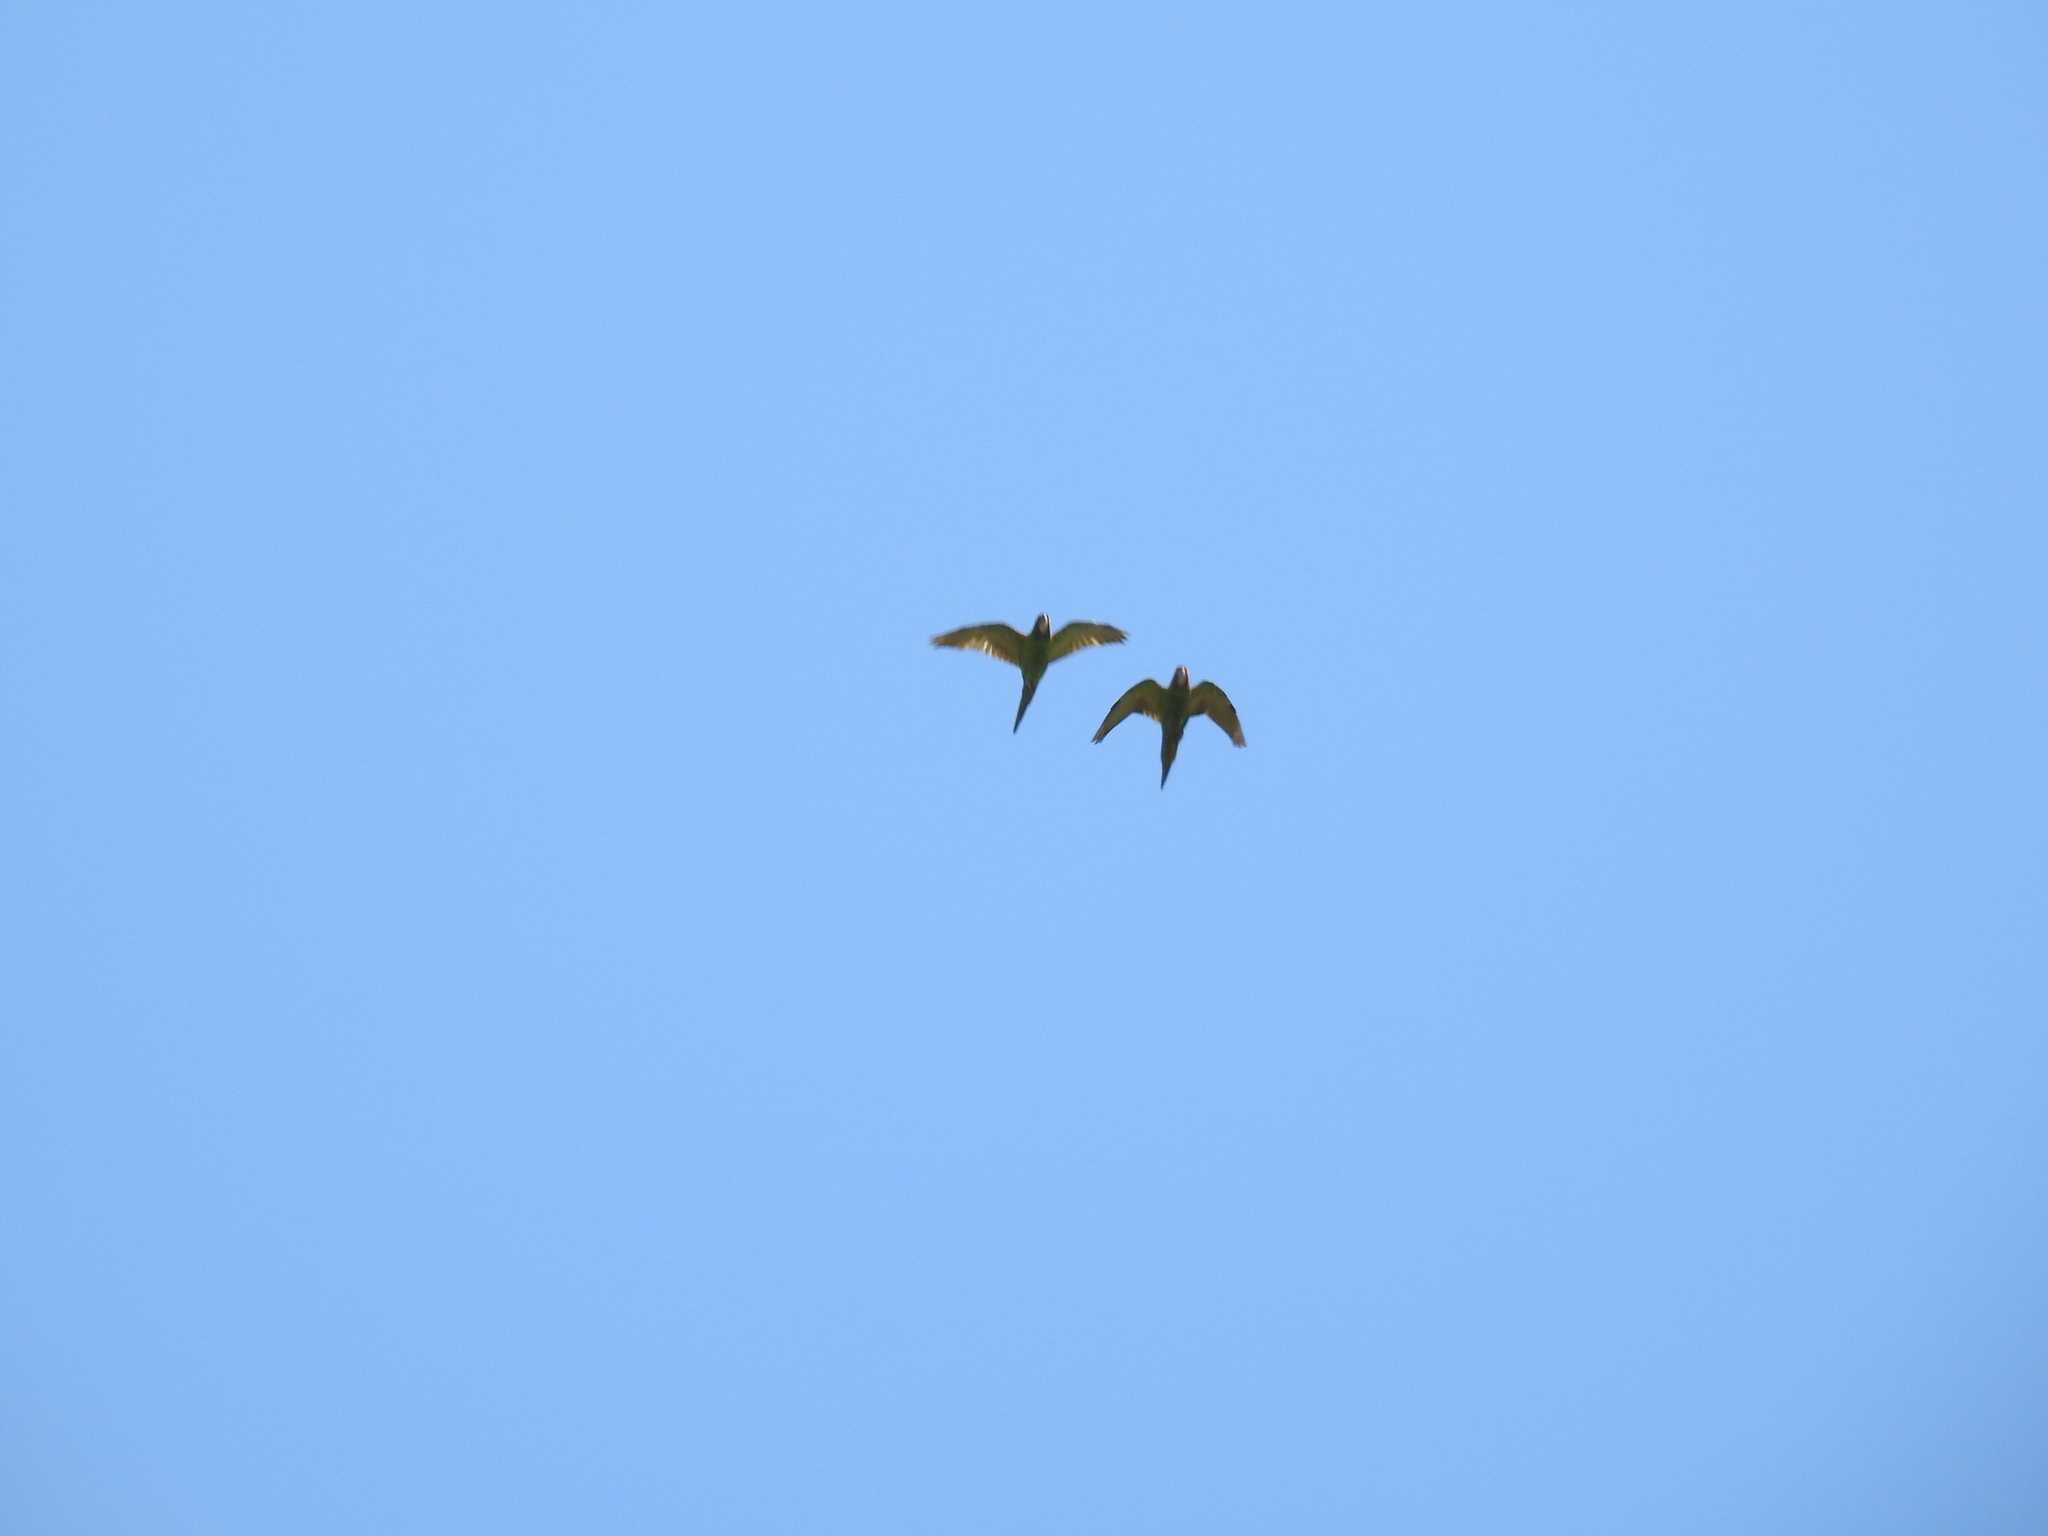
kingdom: Animalia
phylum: Chordata
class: Aves
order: Psittaciformes
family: Psittacidae
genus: Aratinga
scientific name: Aratinga mitrata
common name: Mitred parakeet
